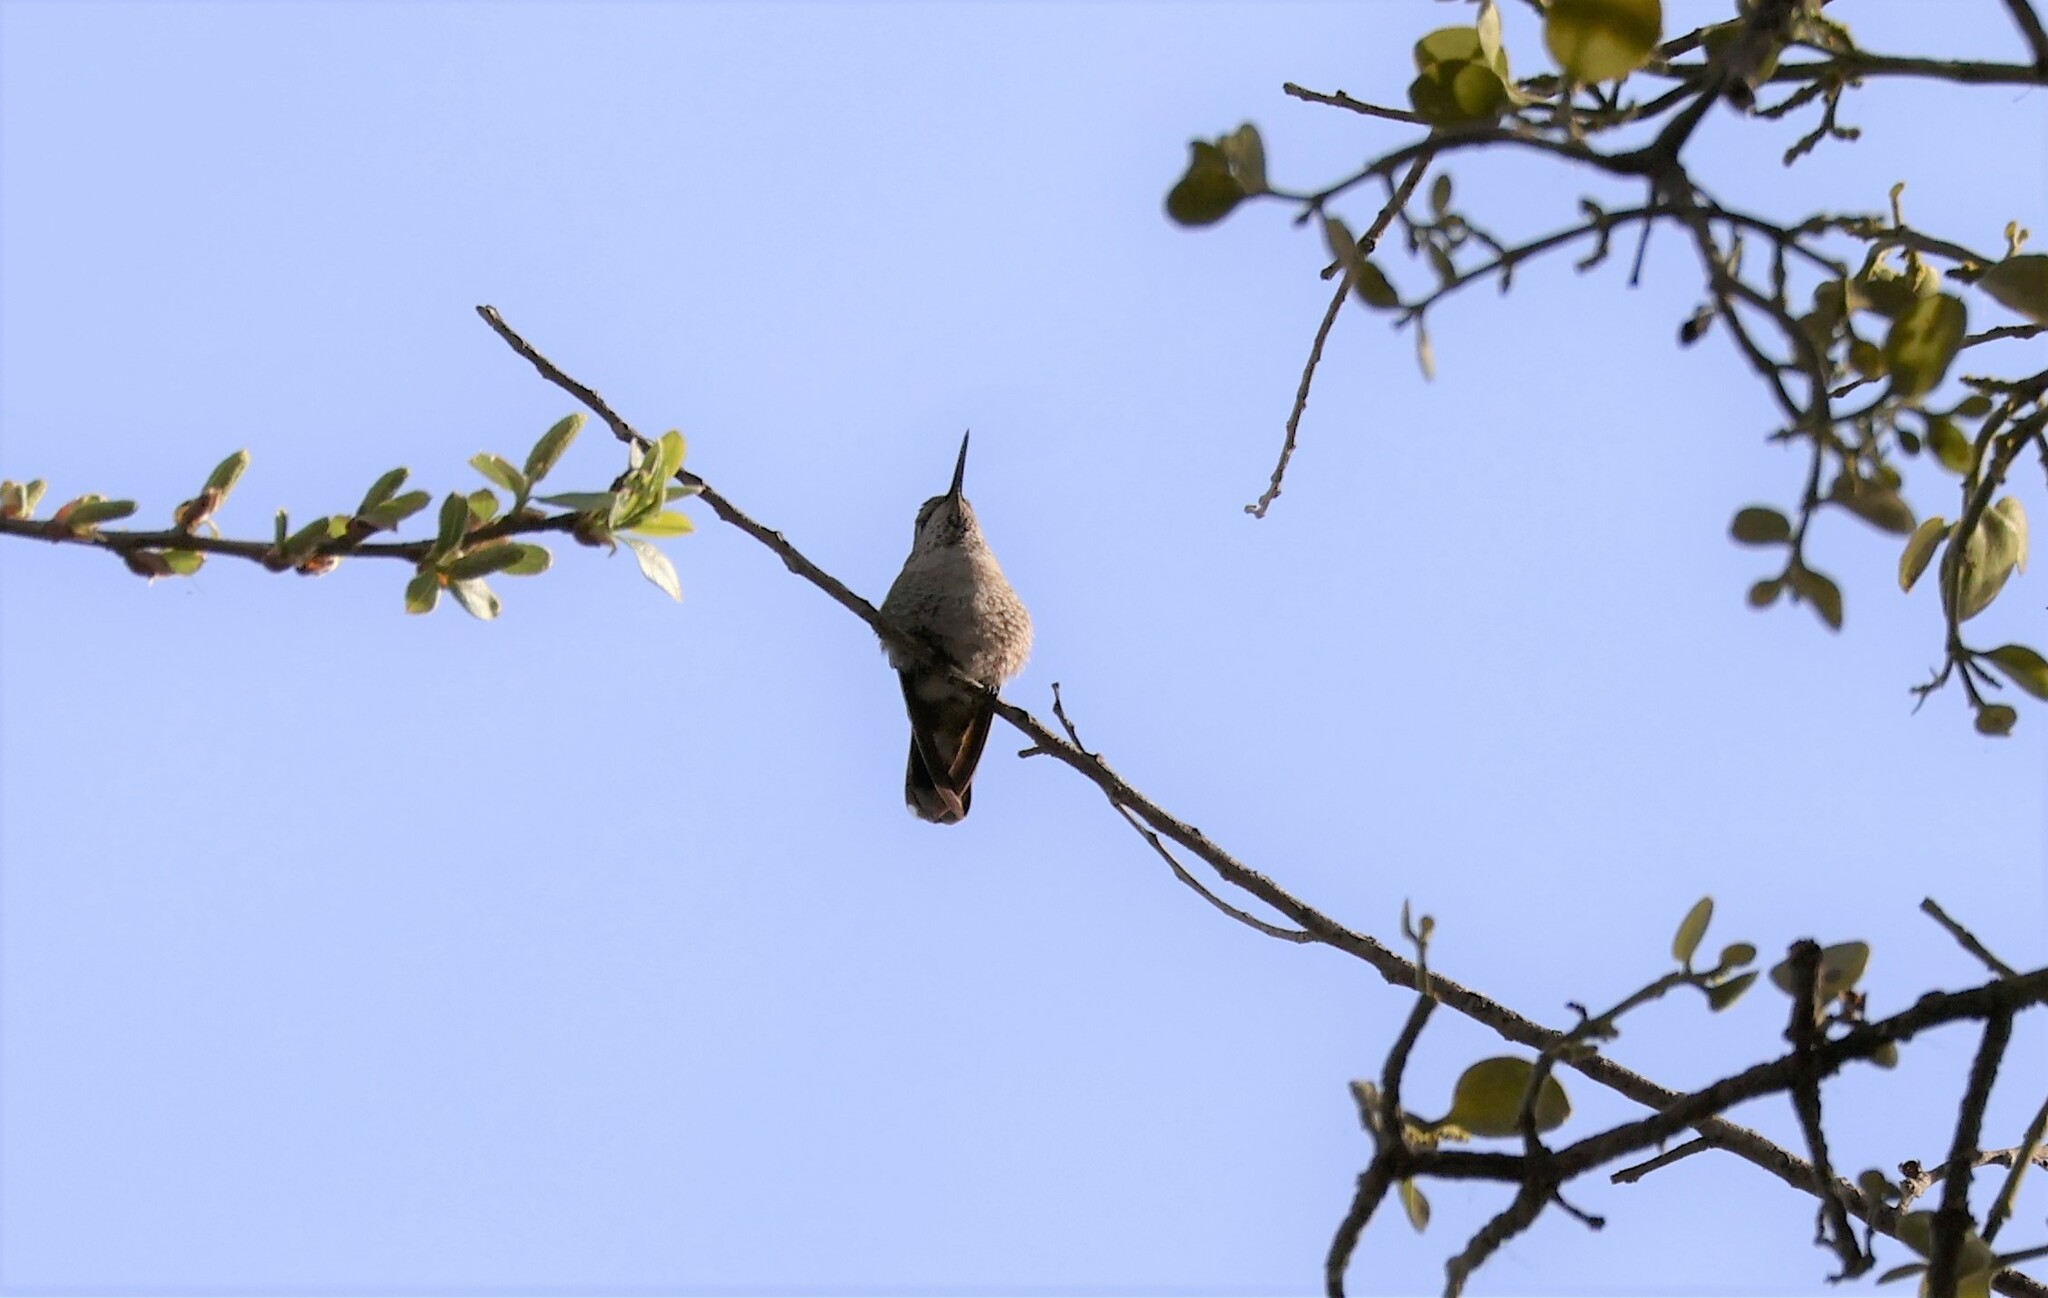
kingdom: Animalia
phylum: Chordata
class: Aves
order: Apodiformes
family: Trochilidae
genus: Calypte
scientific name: Calypte anna
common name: Anna's hummingbird
